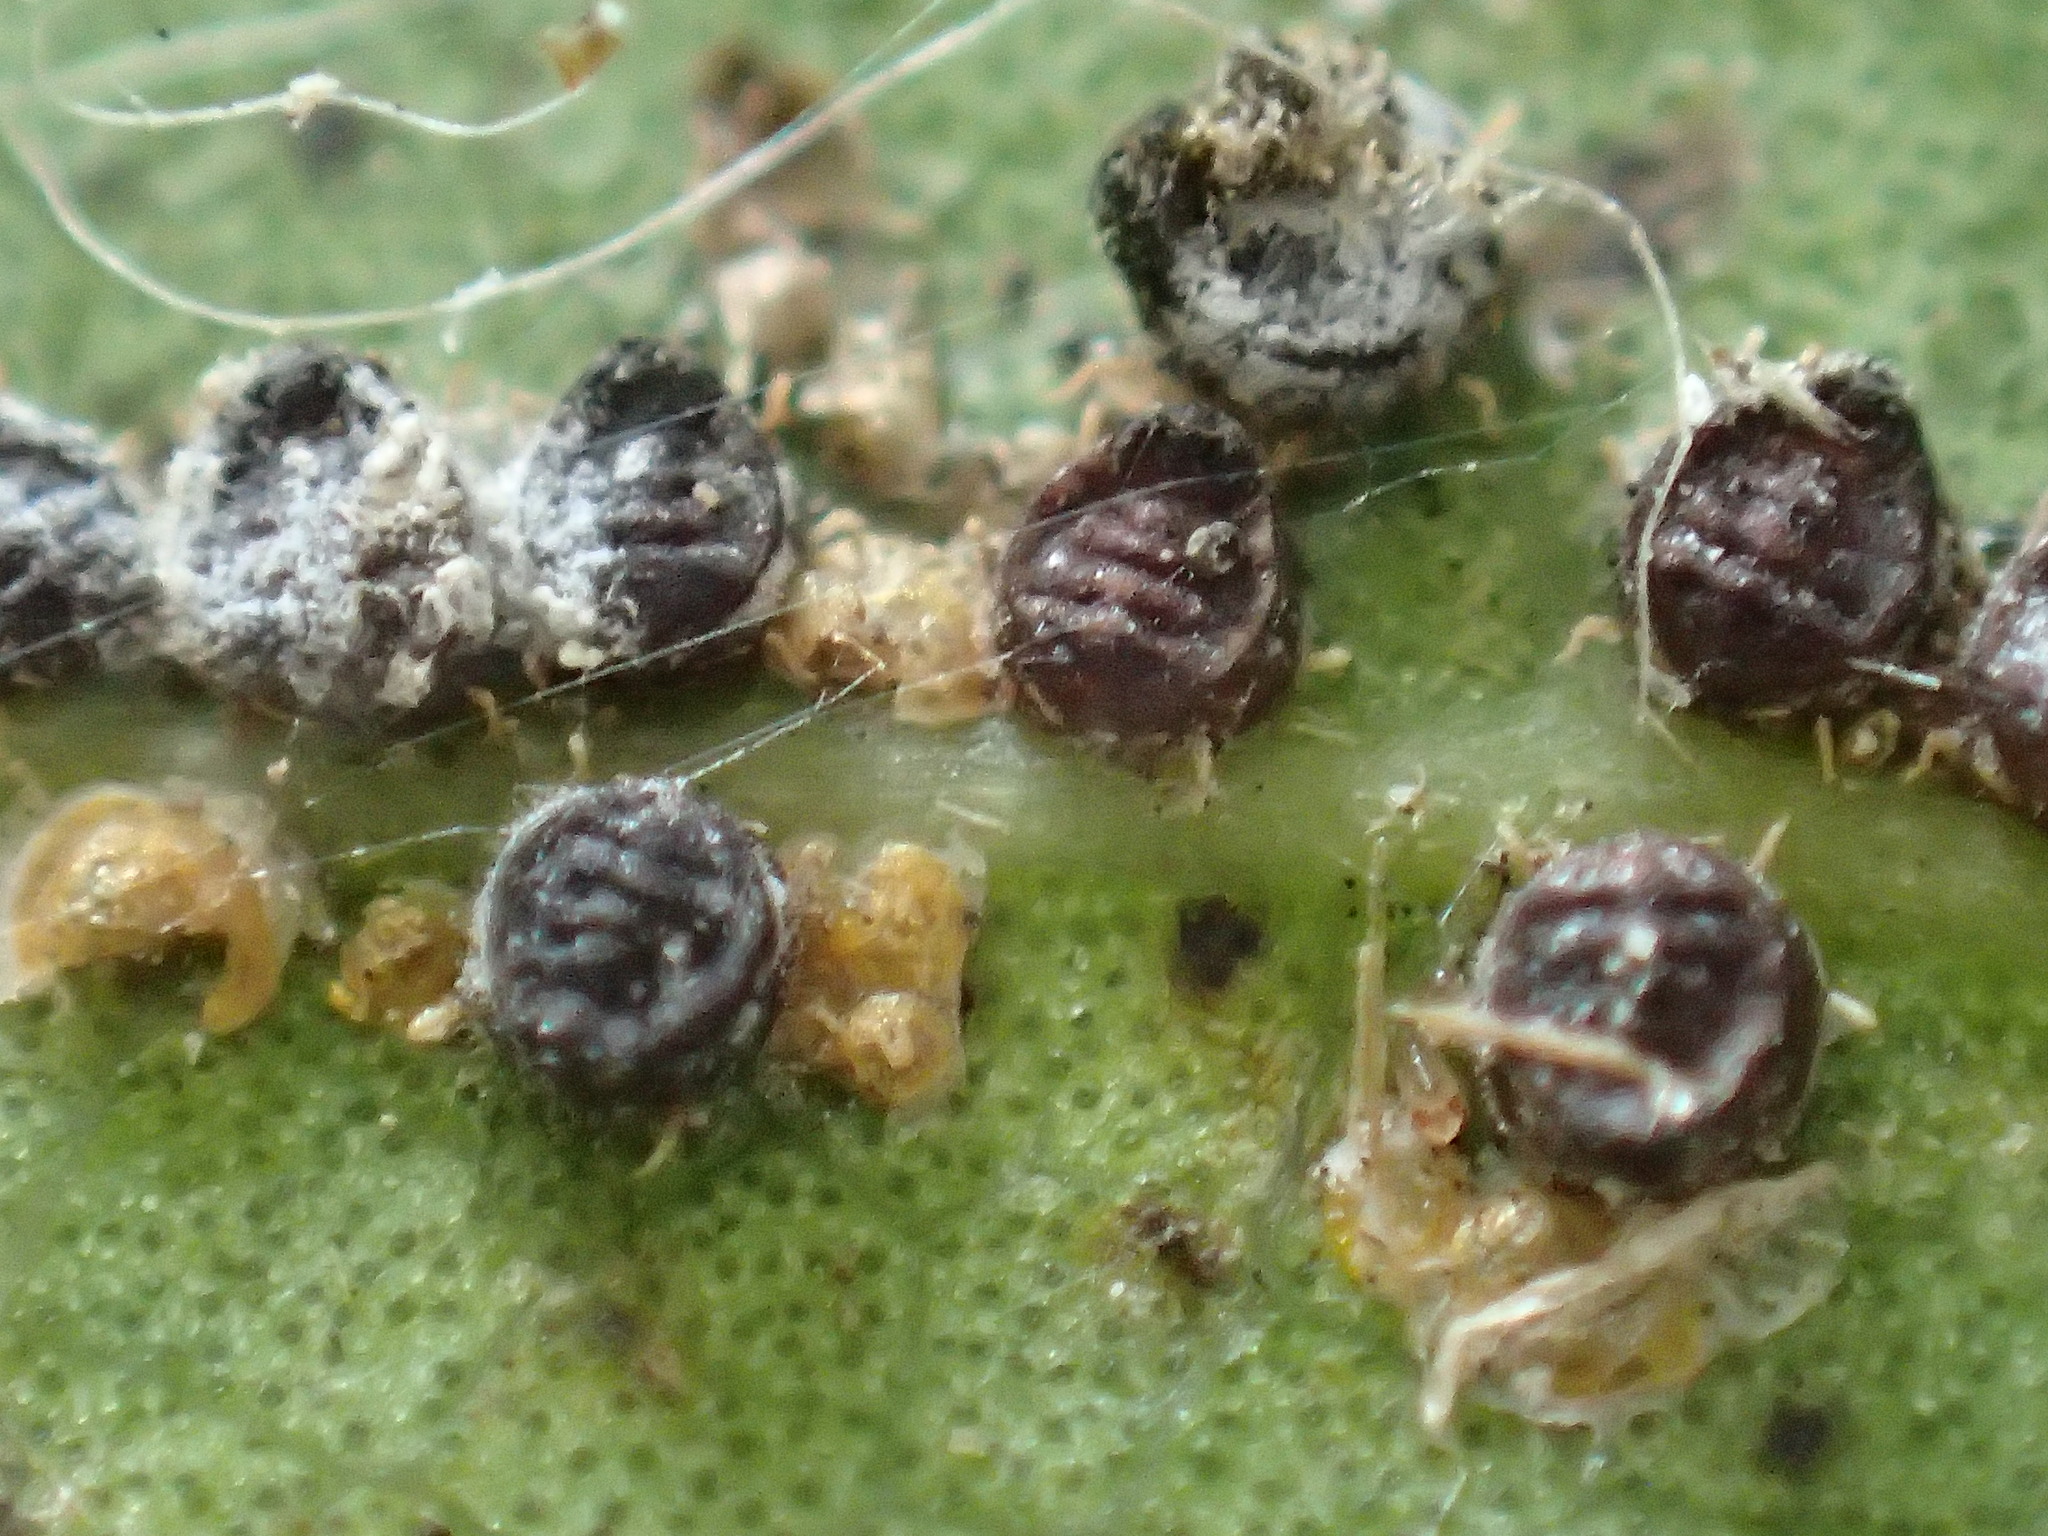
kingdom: Animalia
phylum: Arthropoda
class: Insecta
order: Hemiptera
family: Aphididae
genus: Euthoracaphis
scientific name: Euthoracaphis umbellulariae
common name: Aphid
